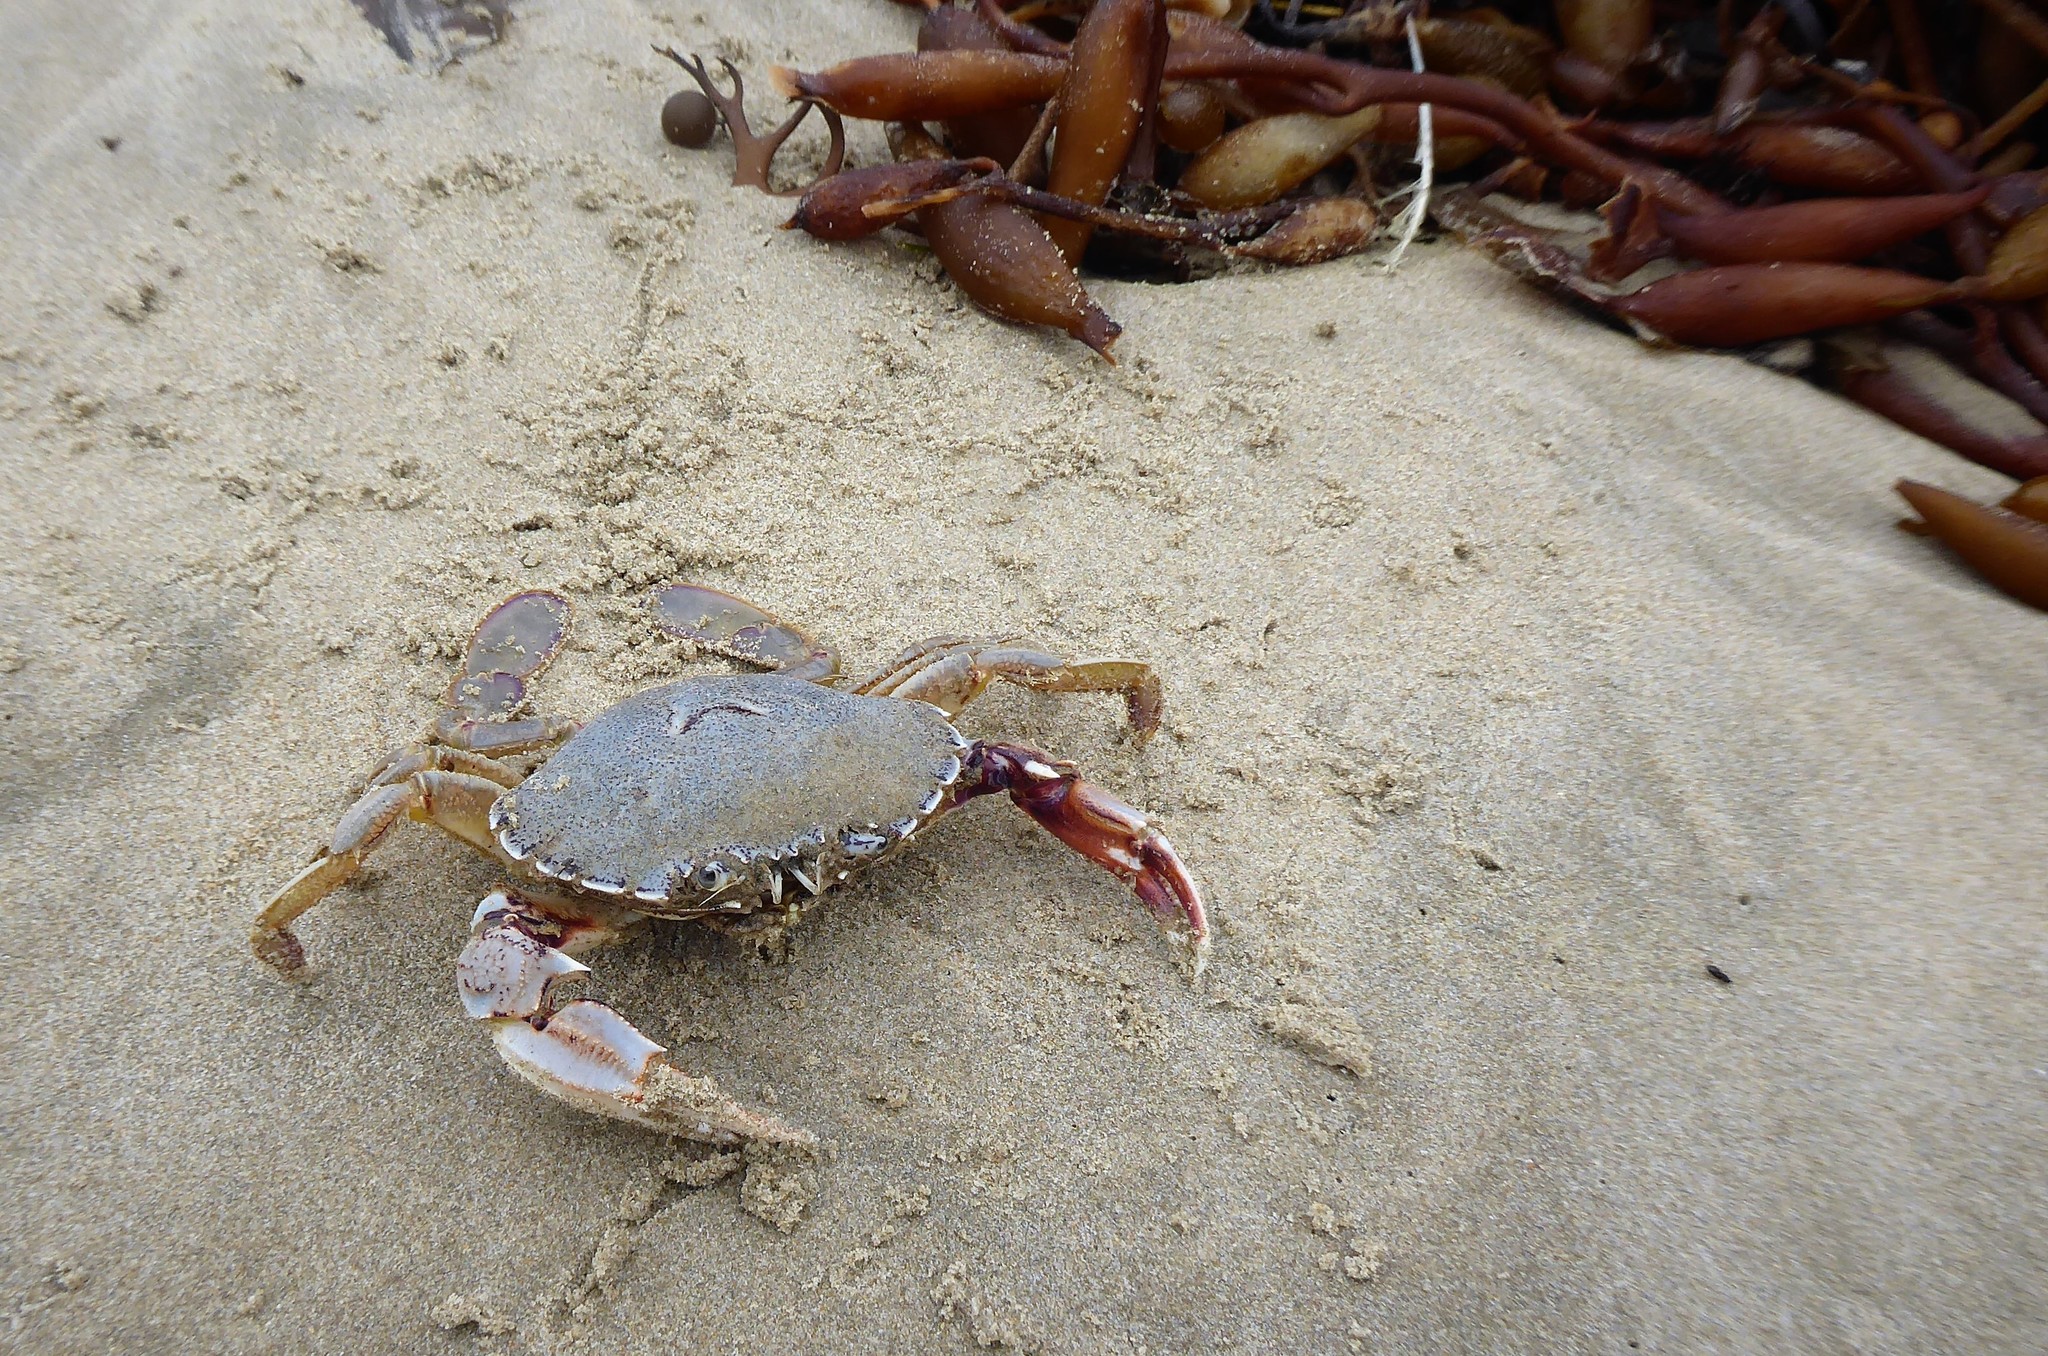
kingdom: Animalia
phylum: Arthropoda
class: Malacostraca
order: Decapoda
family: Ovalipidae
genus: Ovalipes
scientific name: Ovalipes catharus
